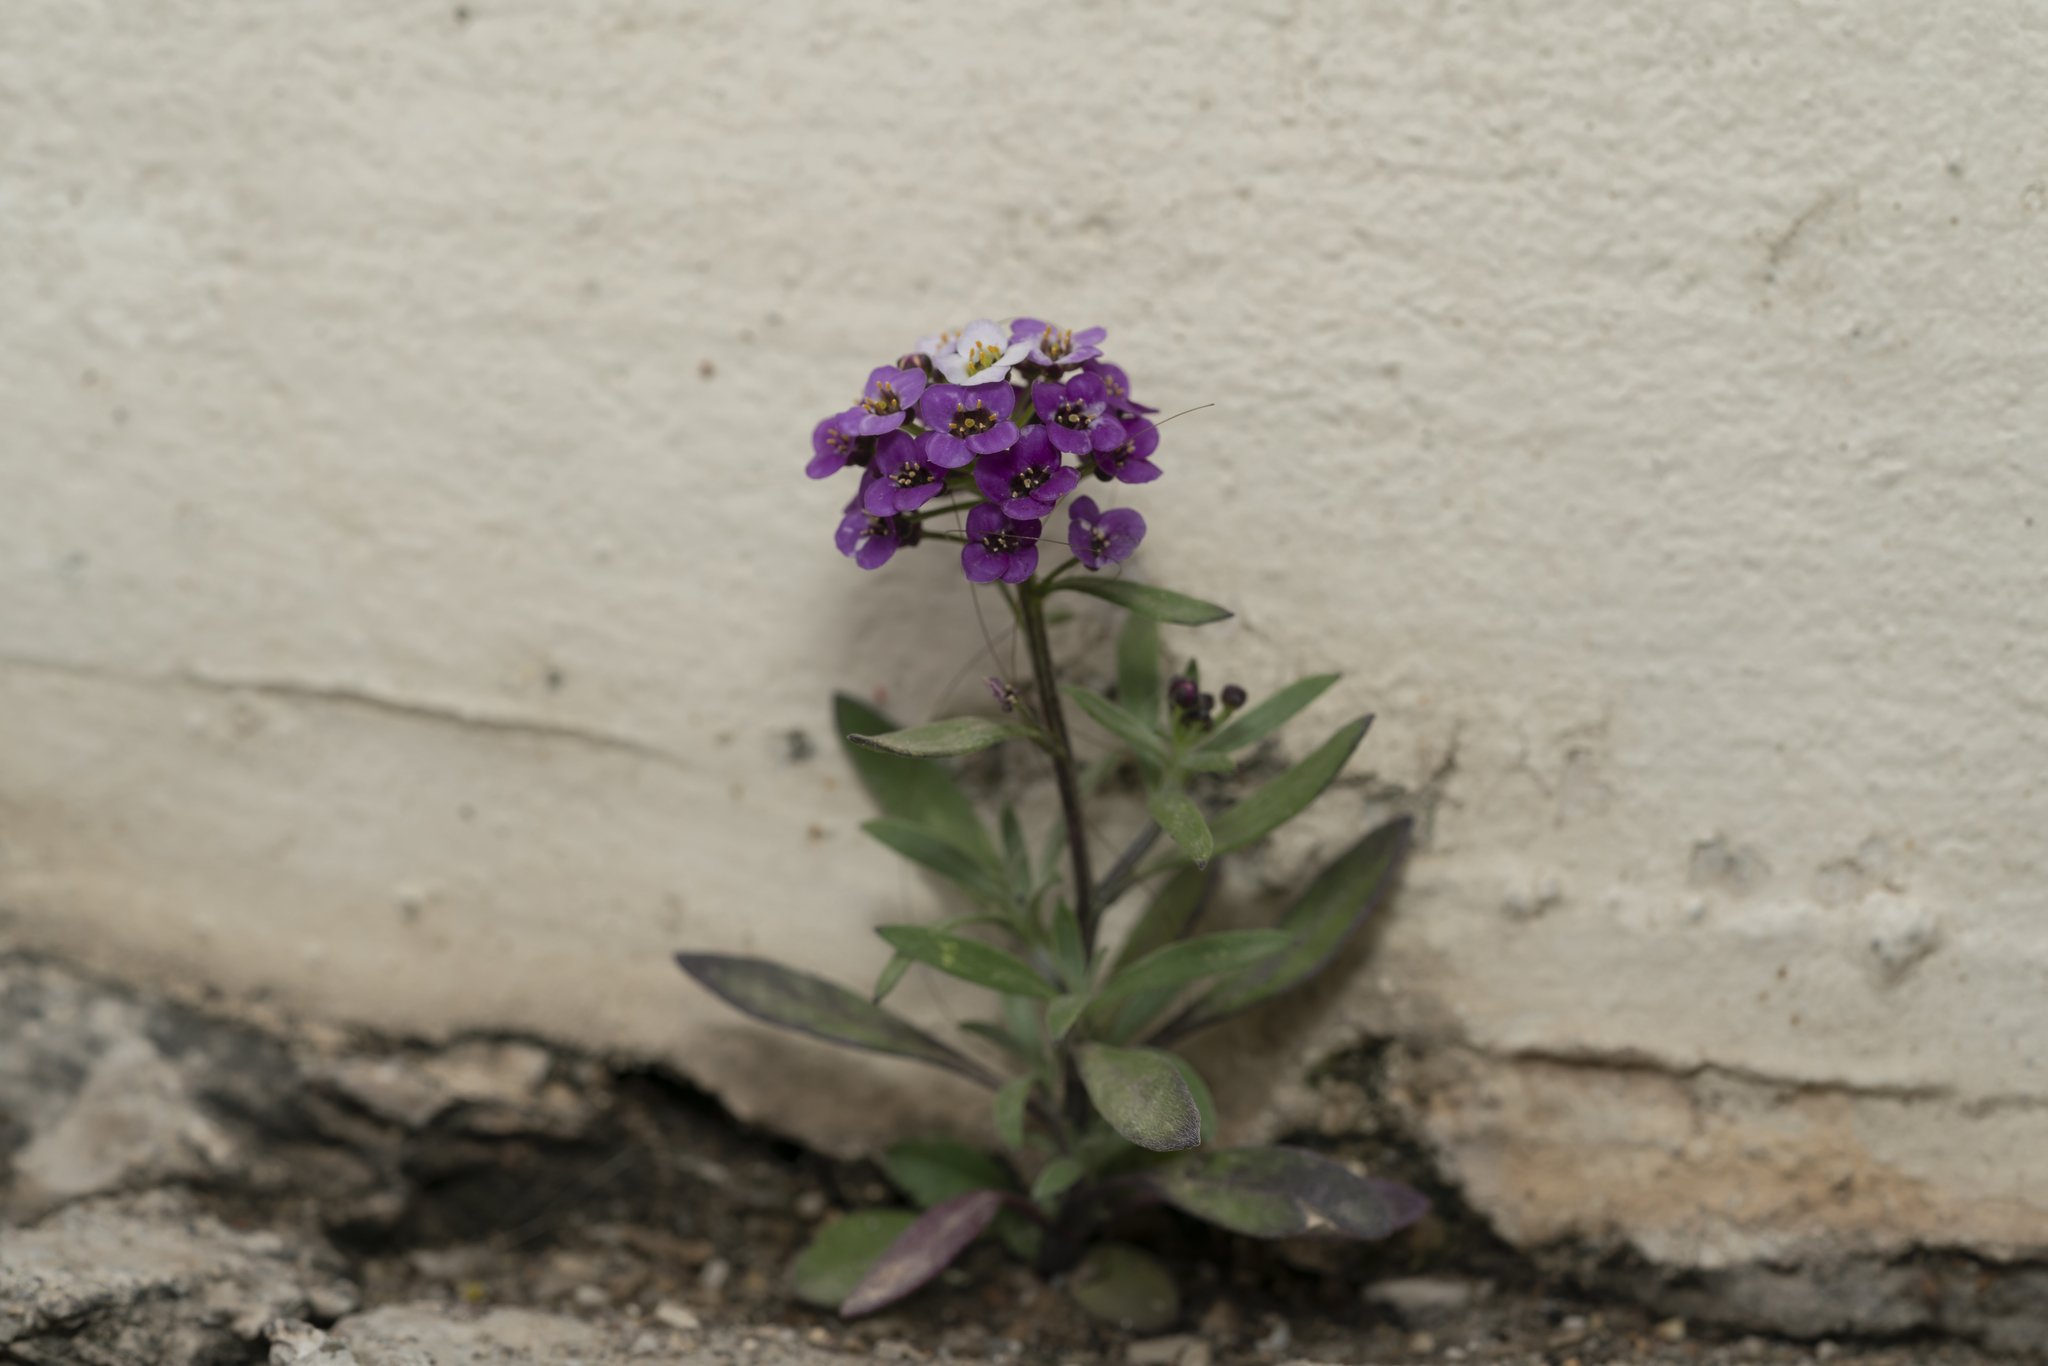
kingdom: Plantae
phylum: Tracheophyta
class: Magnoliopsida
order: Brassicales
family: Brassicaceae
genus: Lobularia
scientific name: Lobularia maritima
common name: Sweet alison
